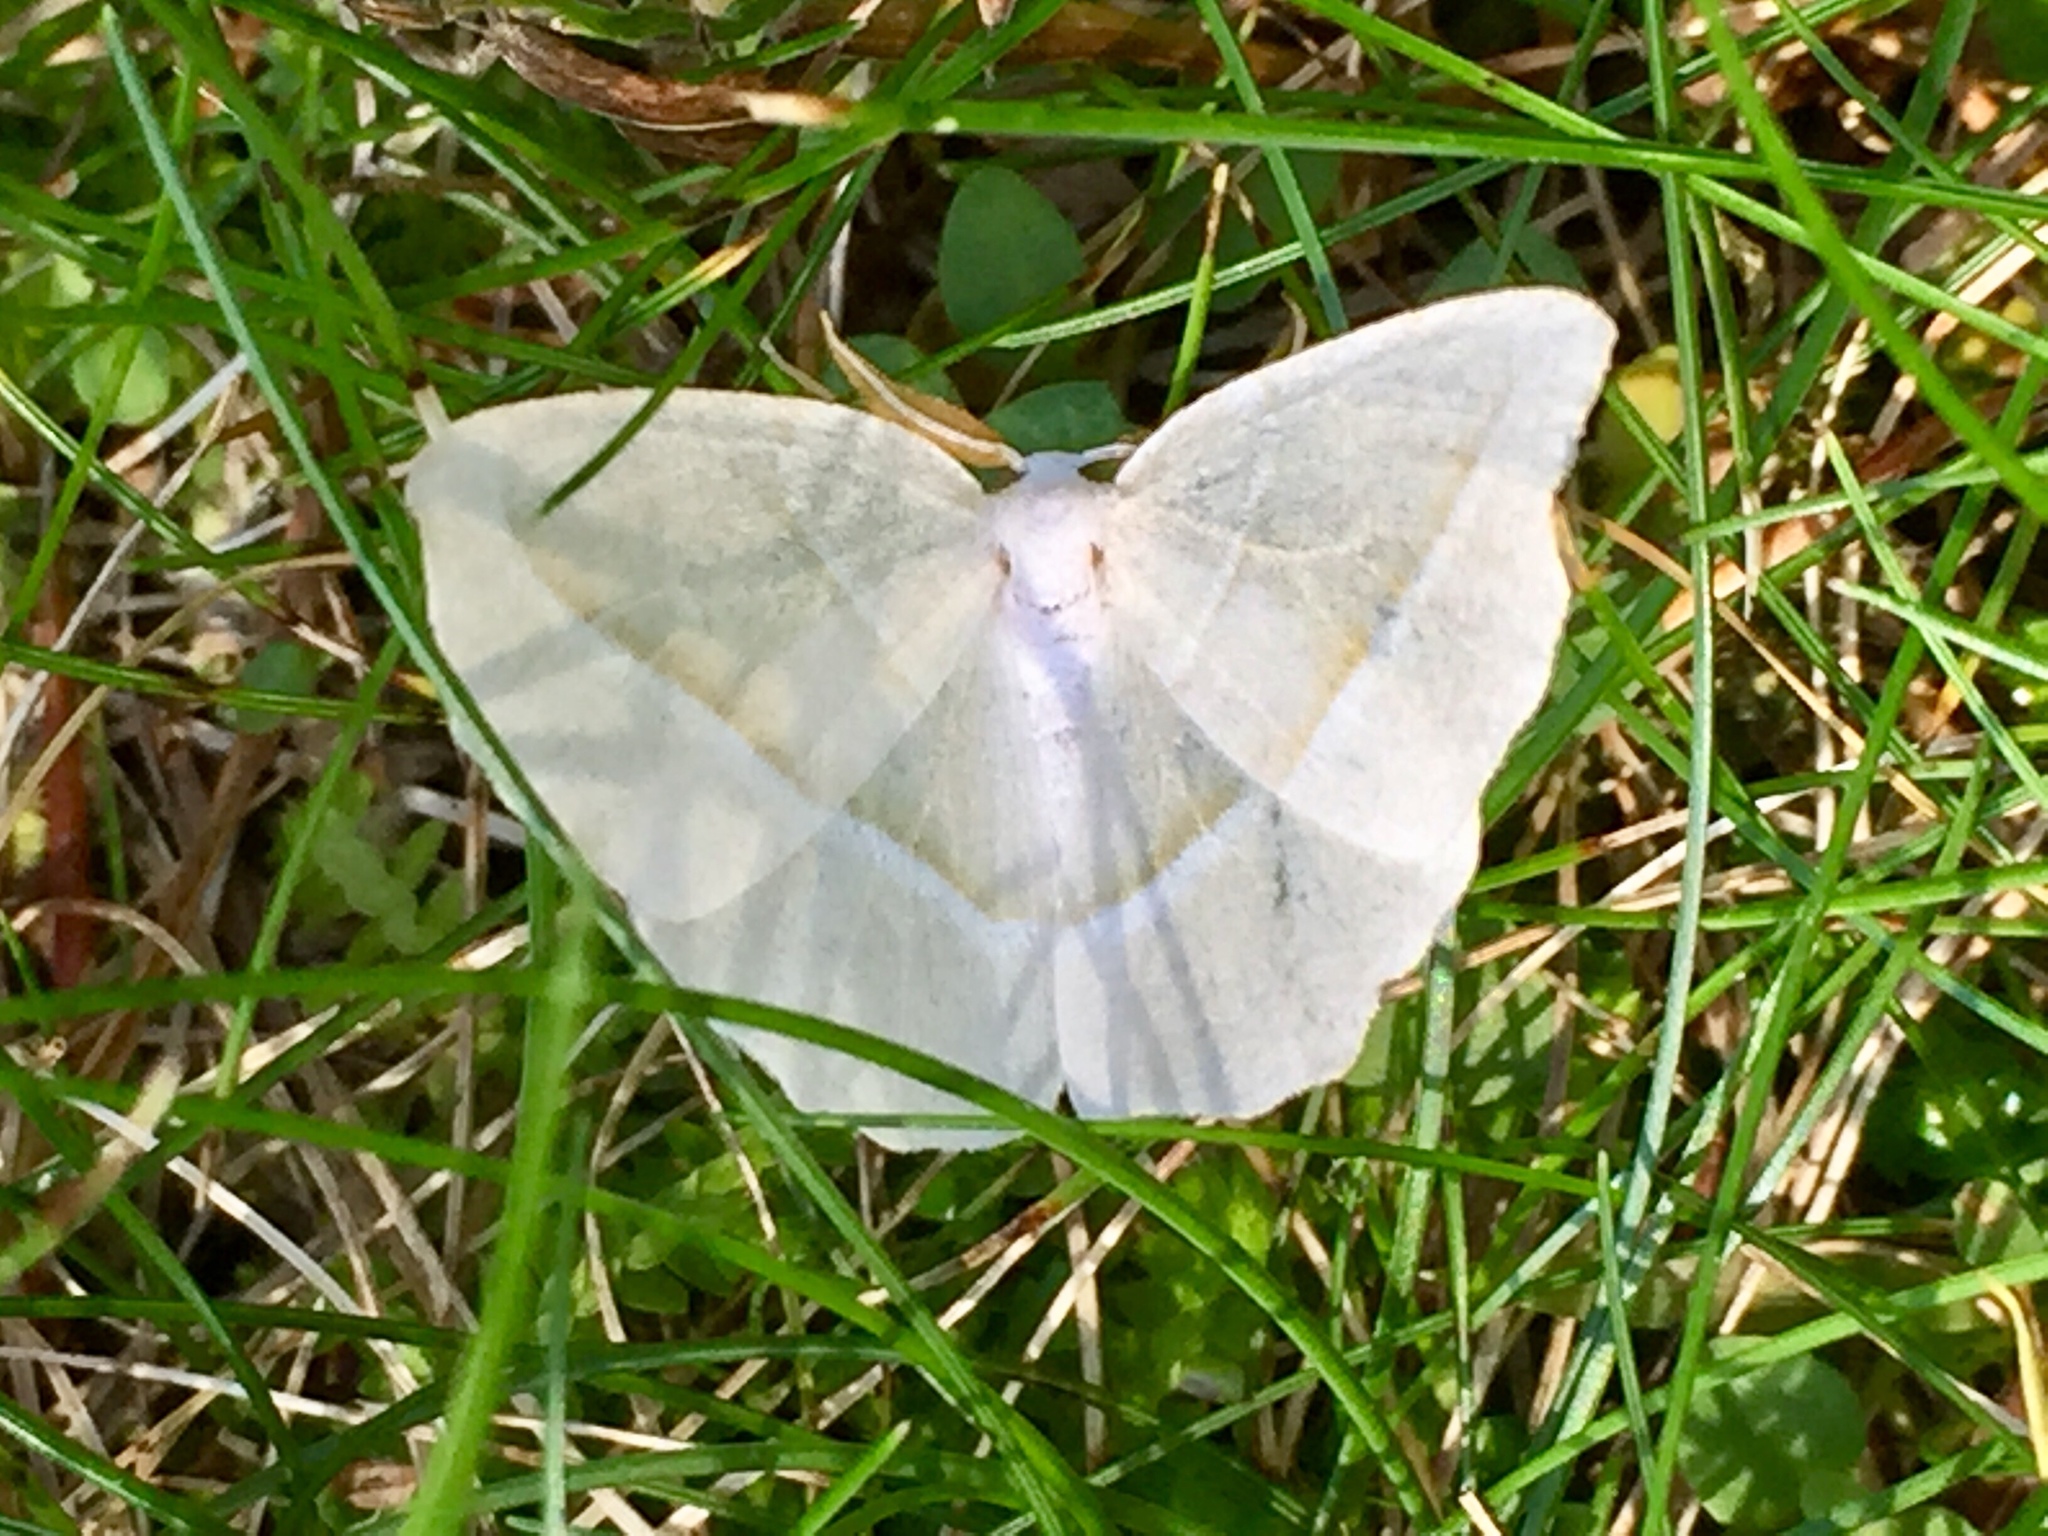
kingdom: Animalia
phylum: Arthropoda
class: Insecta
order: Lepidoptera
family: Geometridae
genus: Campaea
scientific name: Campaea perlata
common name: Fringed looper
